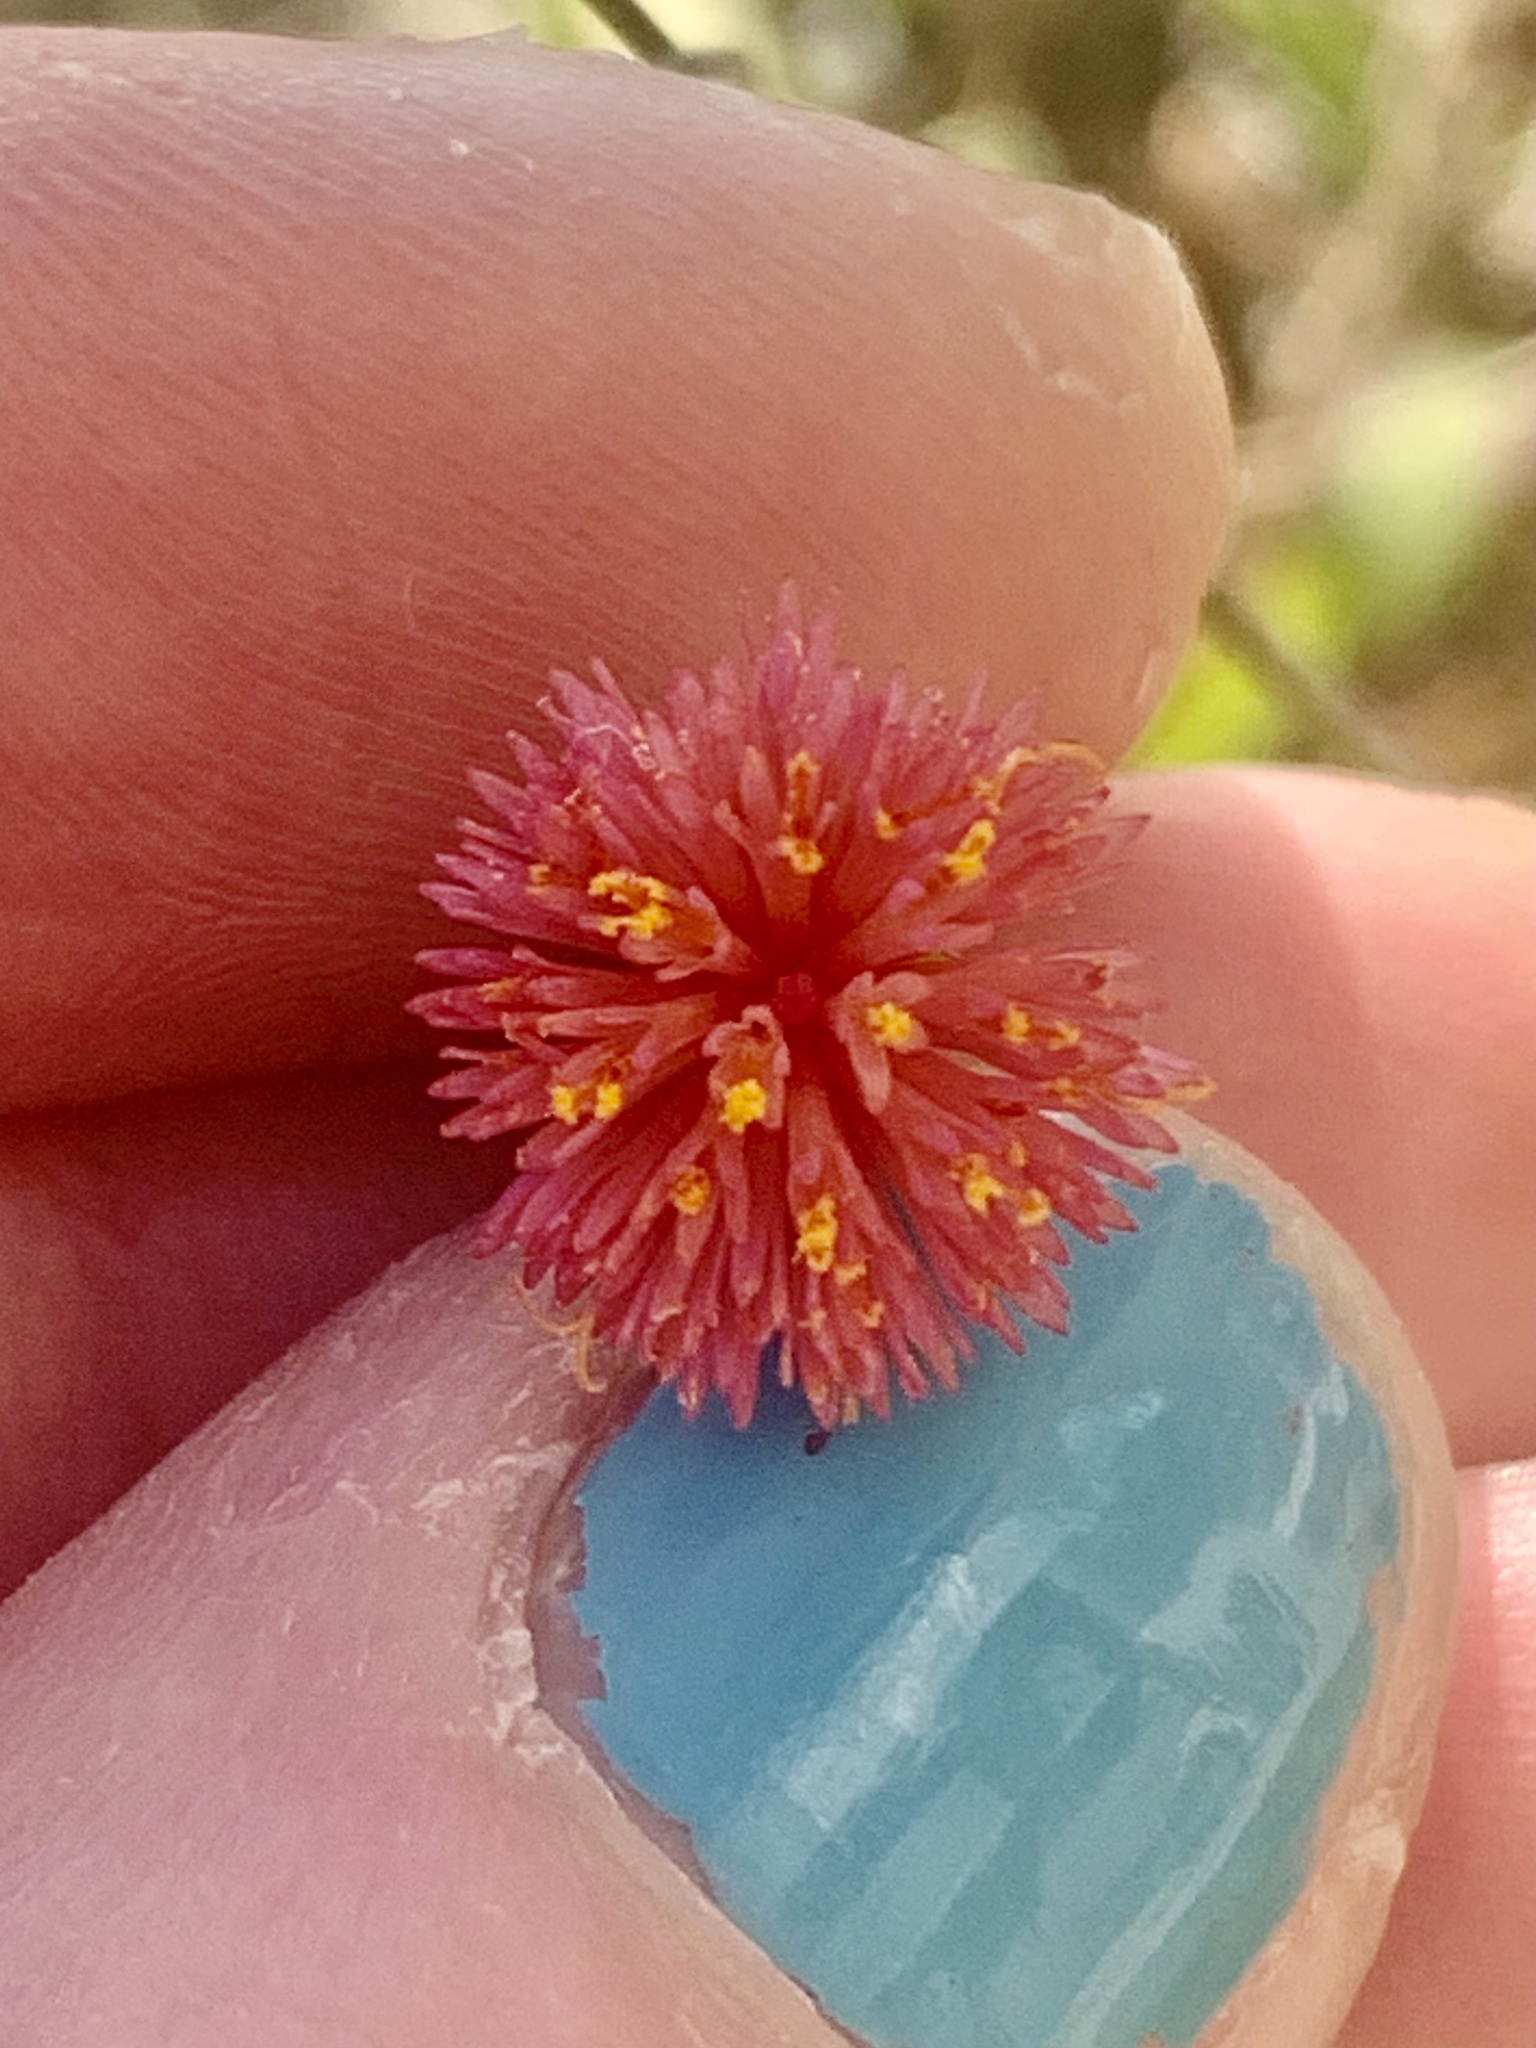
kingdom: Plantae
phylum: Tracheophyta
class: Magnoliopsida
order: Asterales
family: Asteraceae
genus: Emilia
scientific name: Emilia fosbergii
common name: Florida tasselflower
